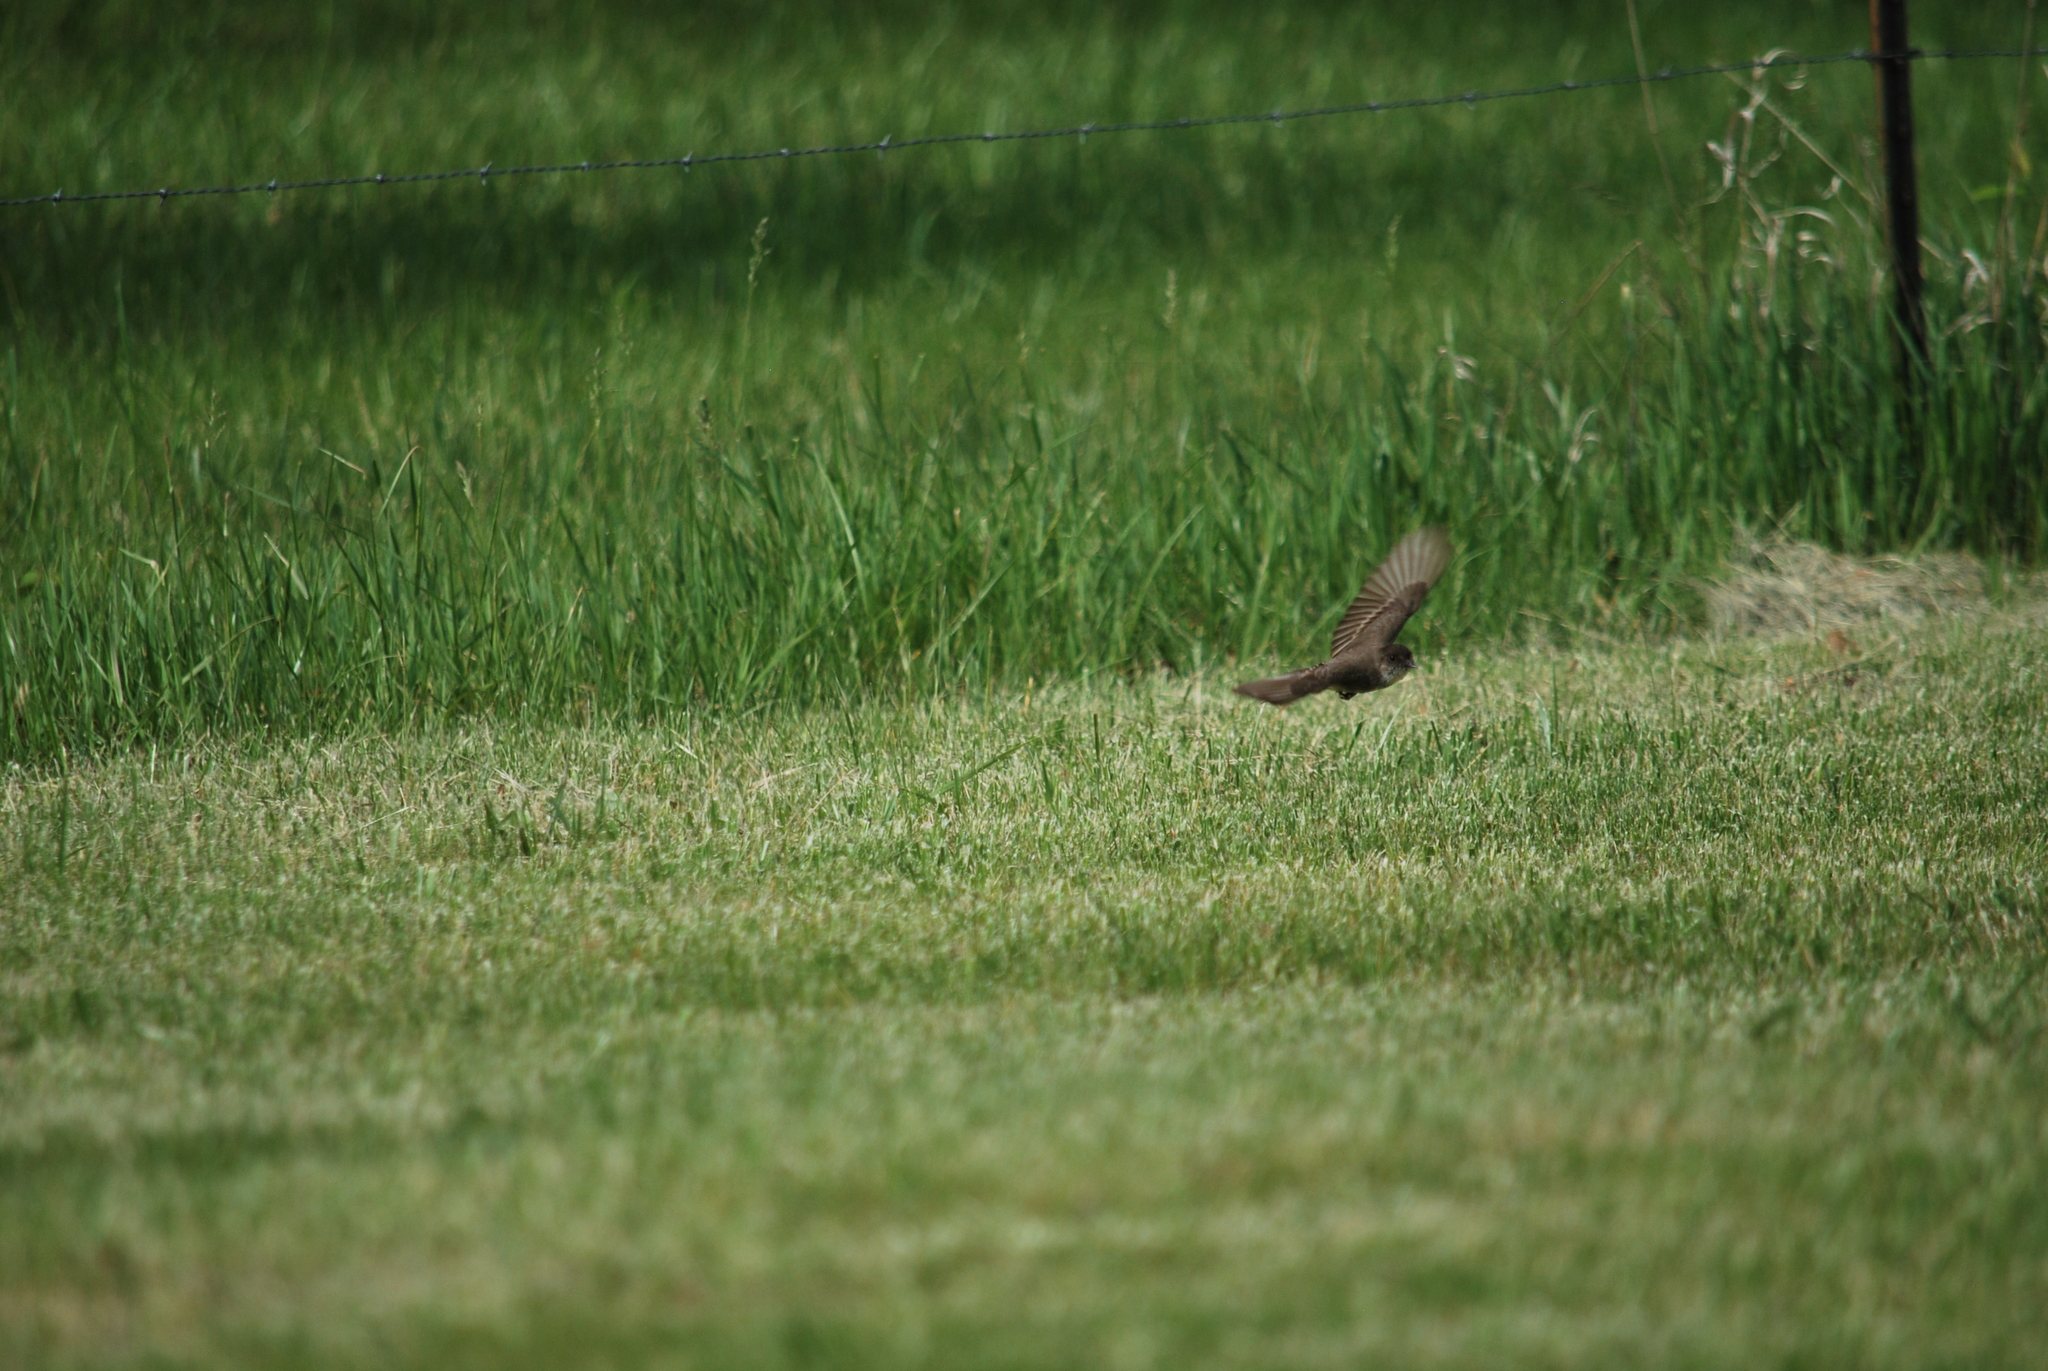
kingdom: Animalia
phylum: Chordata
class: Aves
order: Passeriformes
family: Tyrannidae
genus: Sayornis
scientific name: Sayornis phoebe
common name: Eastern phoebe
